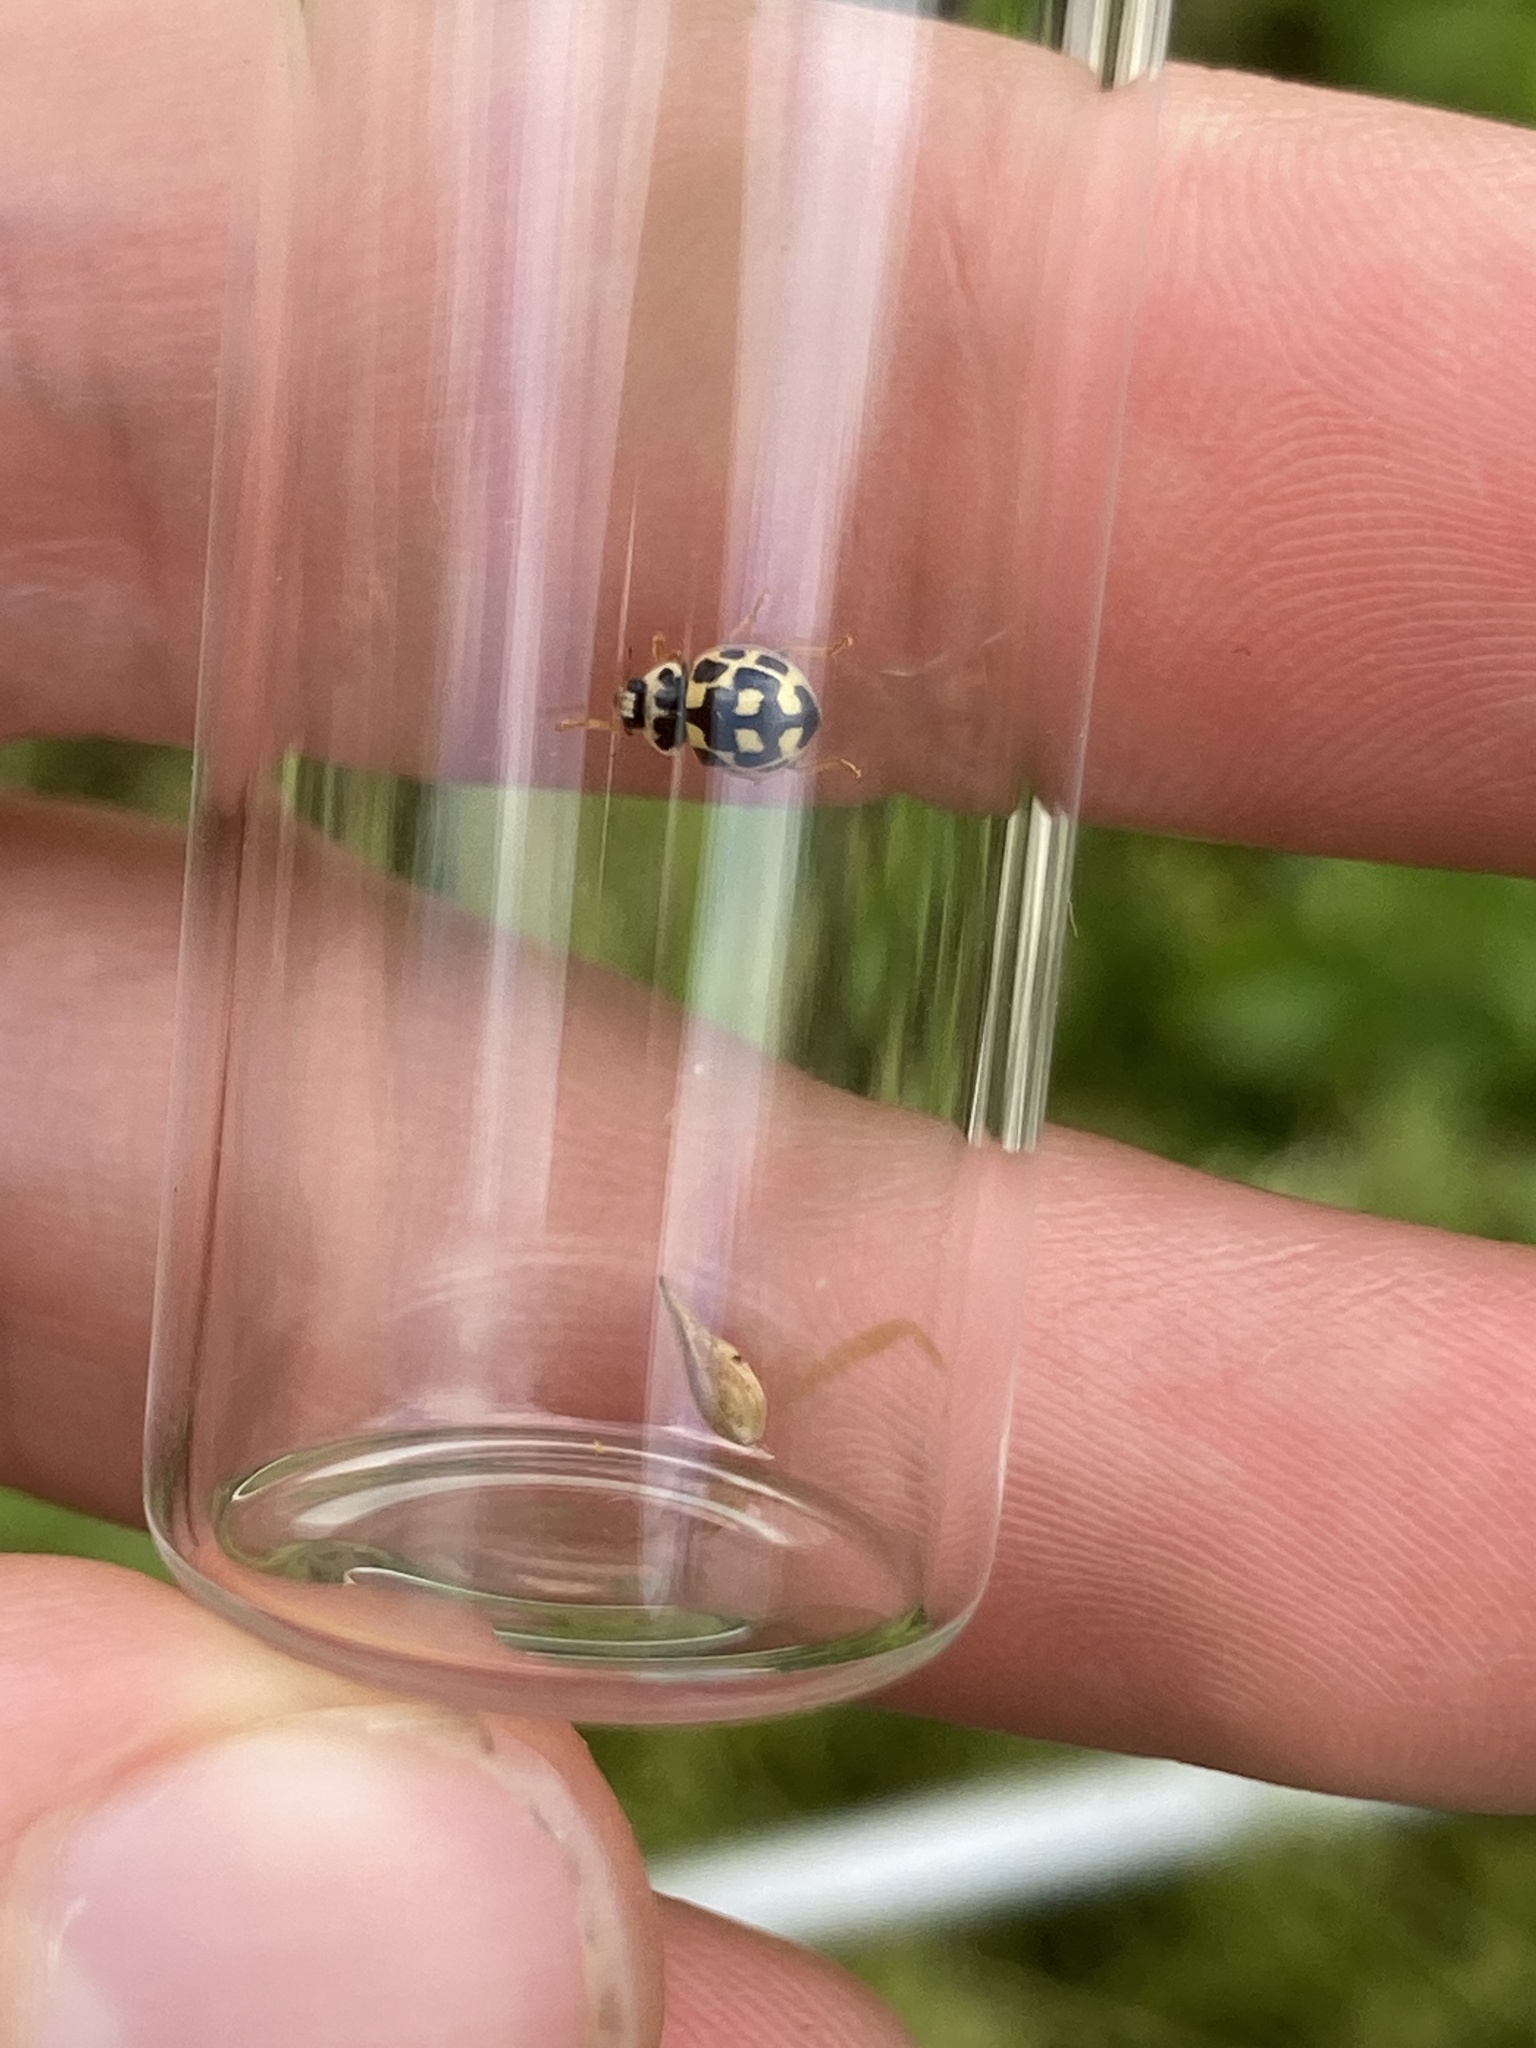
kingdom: Animalia
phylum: Arthropoda
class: Insecta
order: Coleoptera
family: Coccinellidae
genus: Propylaea
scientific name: Propylaea quatuordecimpunctata
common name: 14-spotted ladybird beetle
